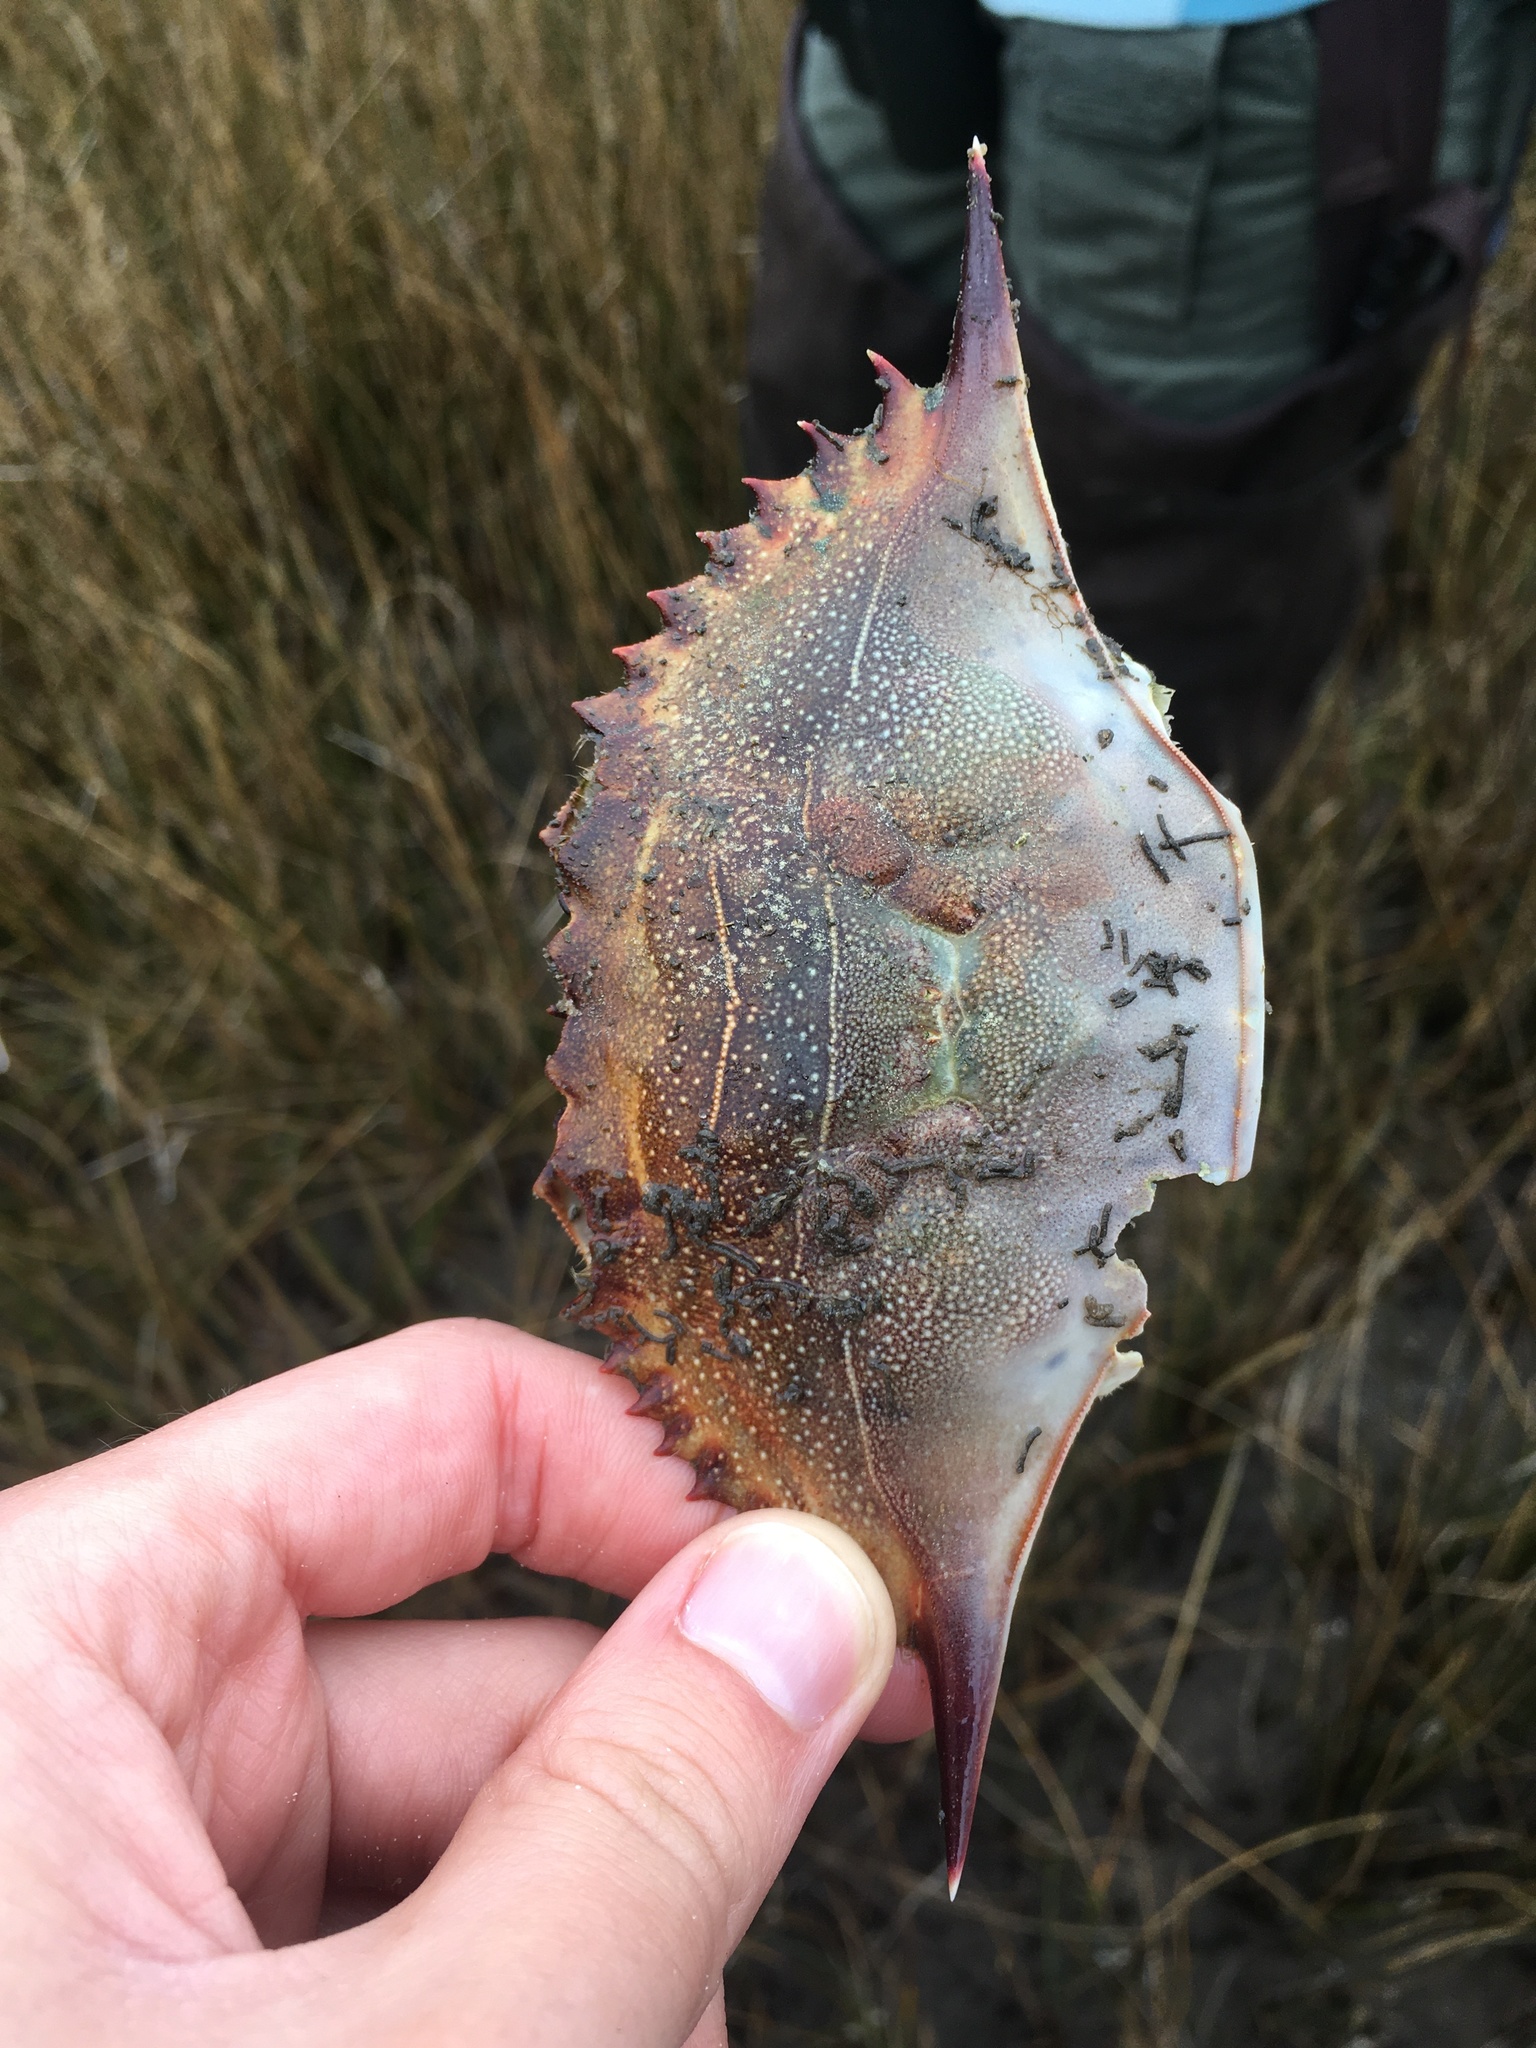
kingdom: Animalia
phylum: Arthropoda
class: Malacostraca
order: Decapoda
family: Portunidae
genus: Callinectes
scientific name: Callinectes sapidus
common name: Blue crab
